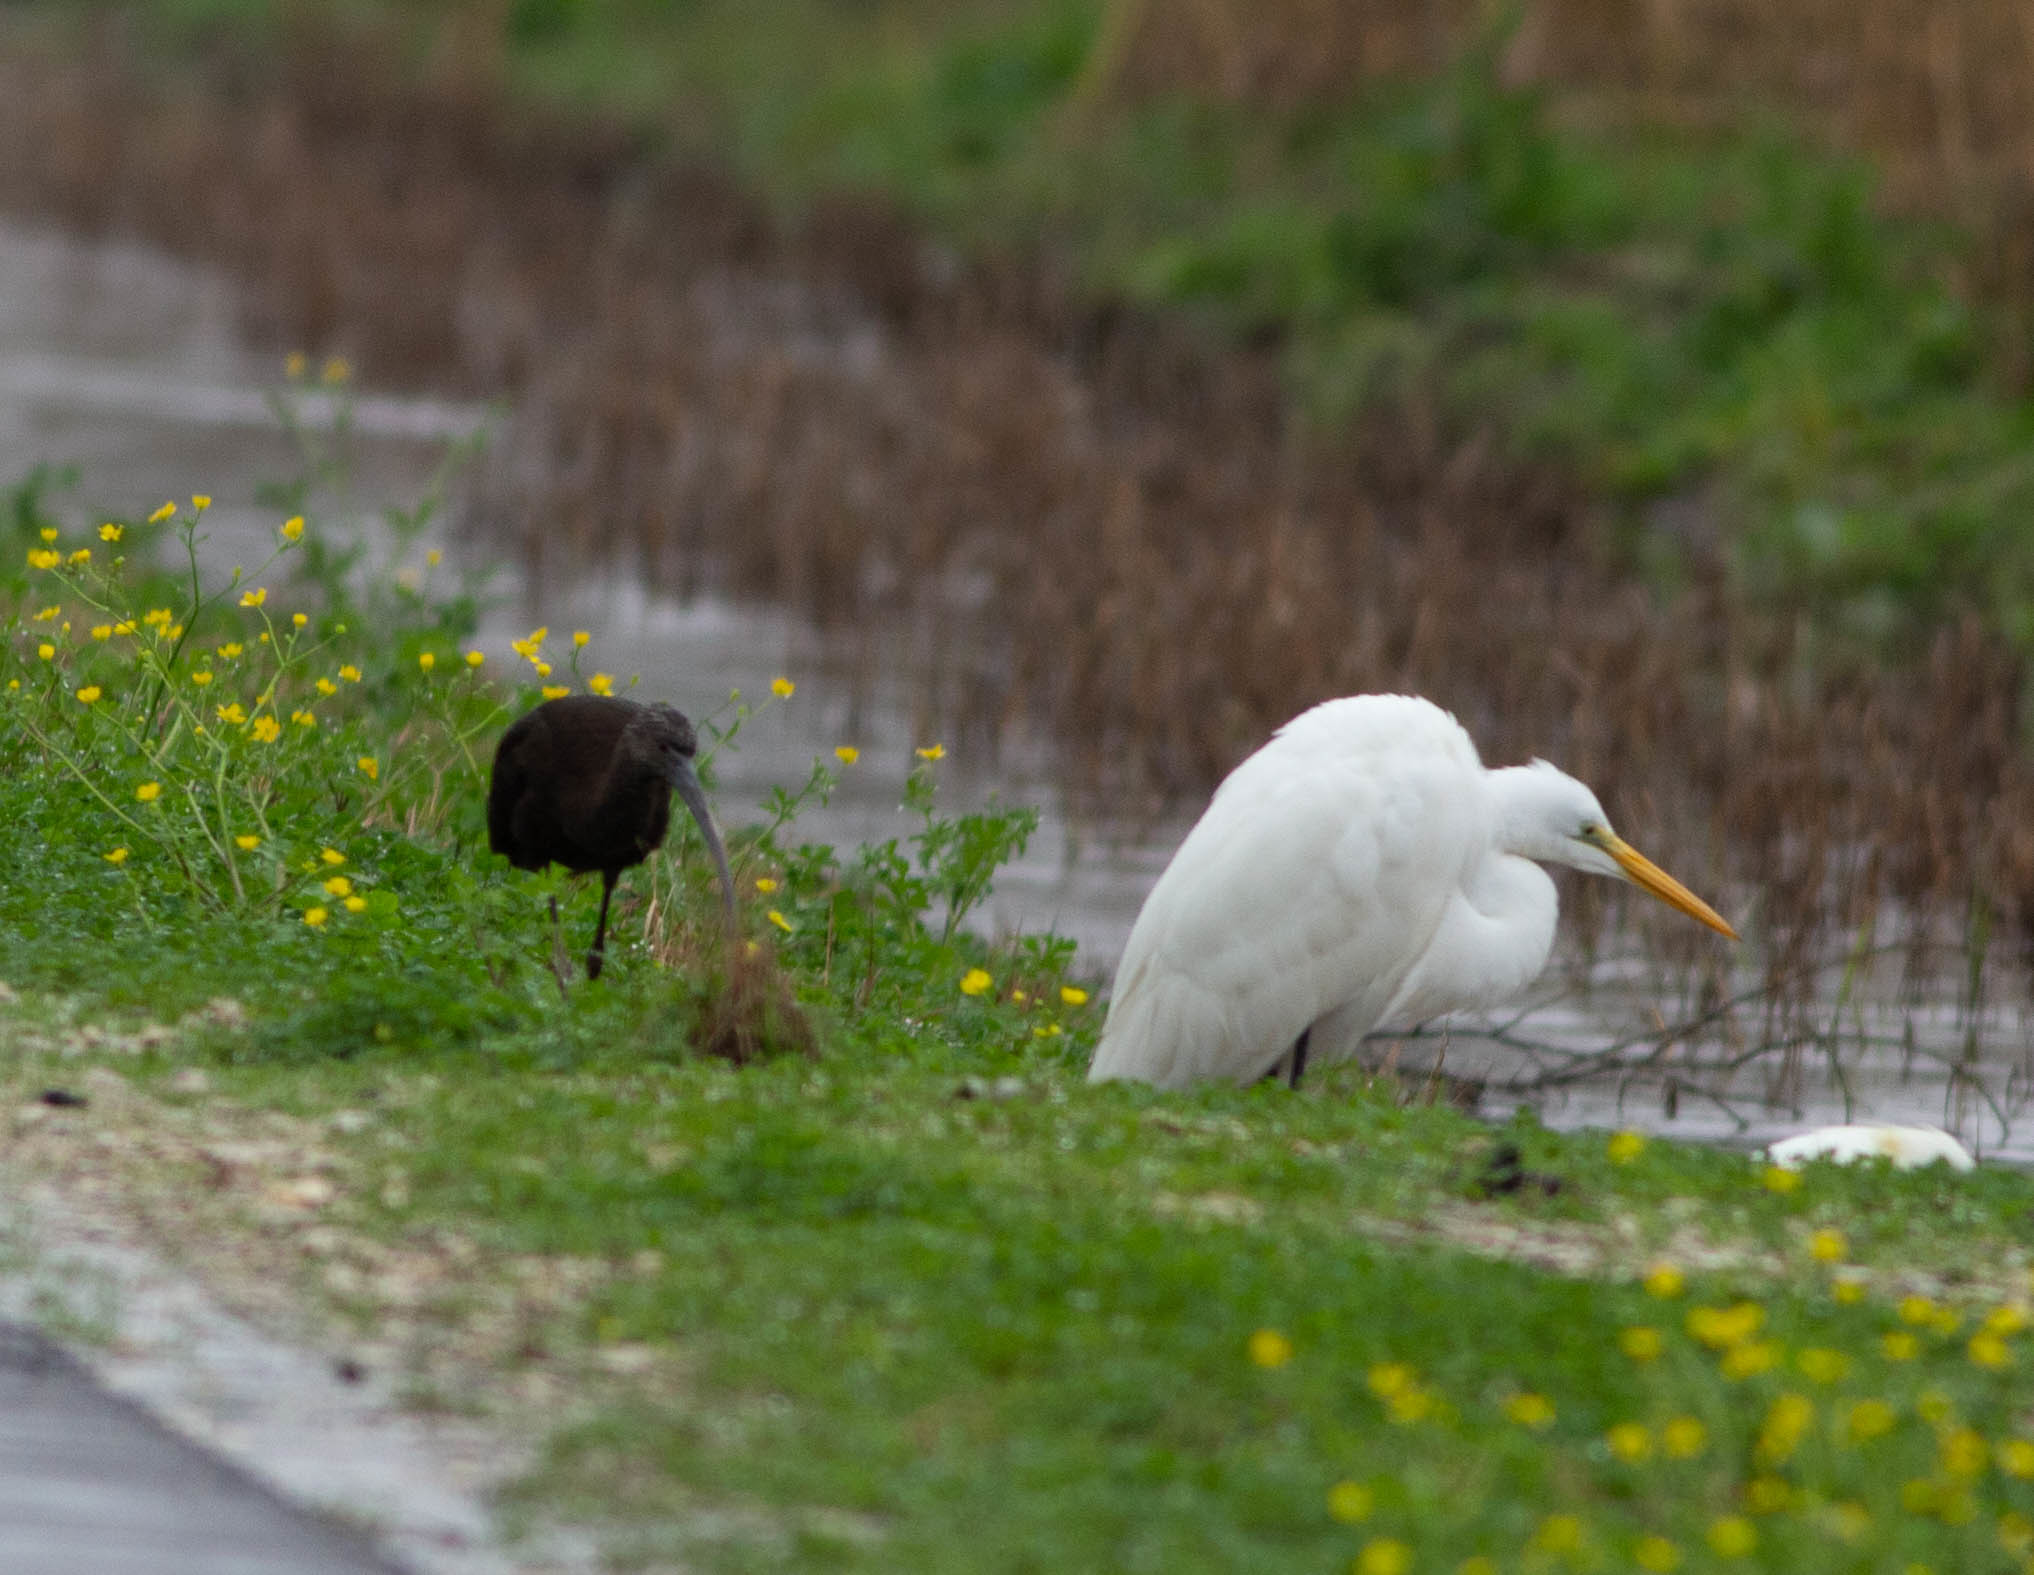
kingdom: Animalia
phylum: Chordata
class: Aves
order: Pelecaniformes
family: Ardeidae
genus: Ardea
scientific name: Ardea alba
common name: Great egret
